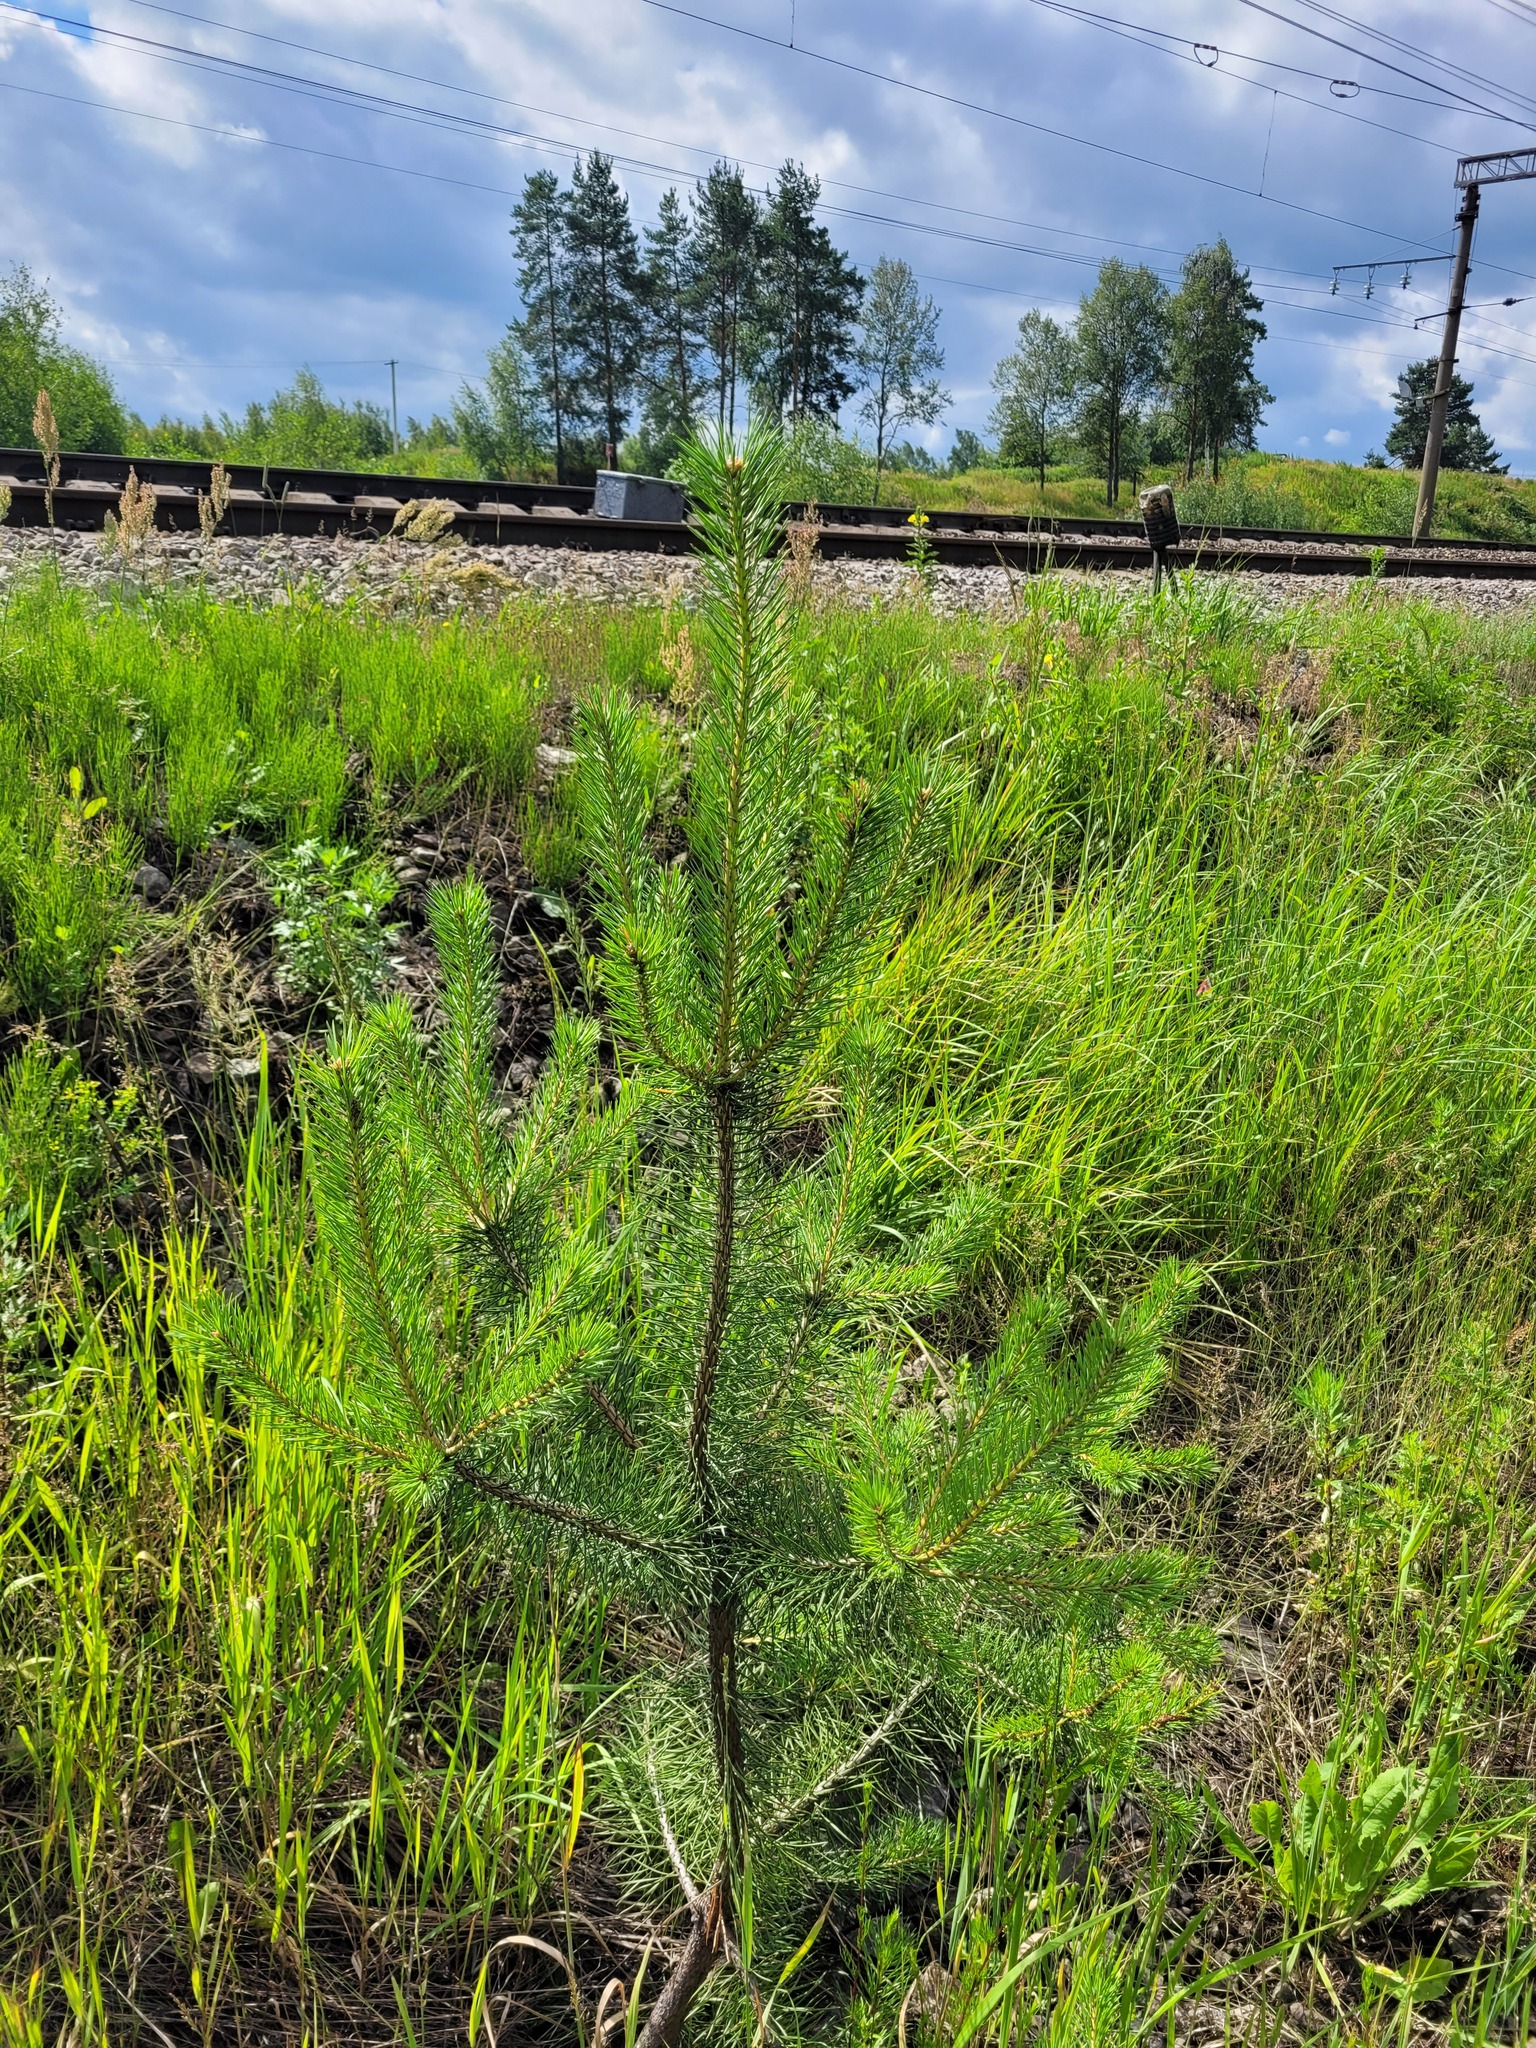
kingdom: Plantae
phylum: Tracheophyta
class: Pinopsida
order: Pinales
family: Pinaceae
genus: Pinus
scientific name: Pinus sylvestris
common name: Scots pine
